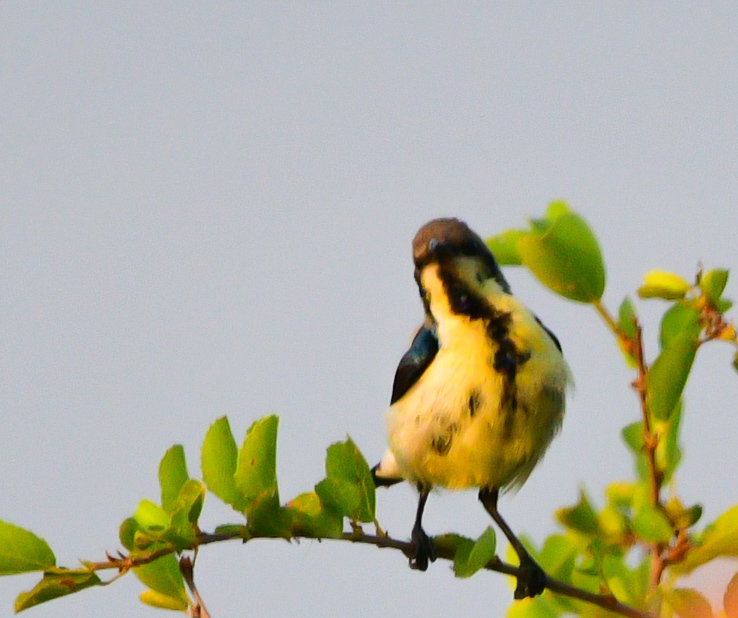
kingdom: Animalia
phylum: Chordata
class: Aves
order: Passeriformes
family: Nectariniidae
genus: Cinnyris
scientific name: Cinnyris asiaticus
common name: Purple sunbird
